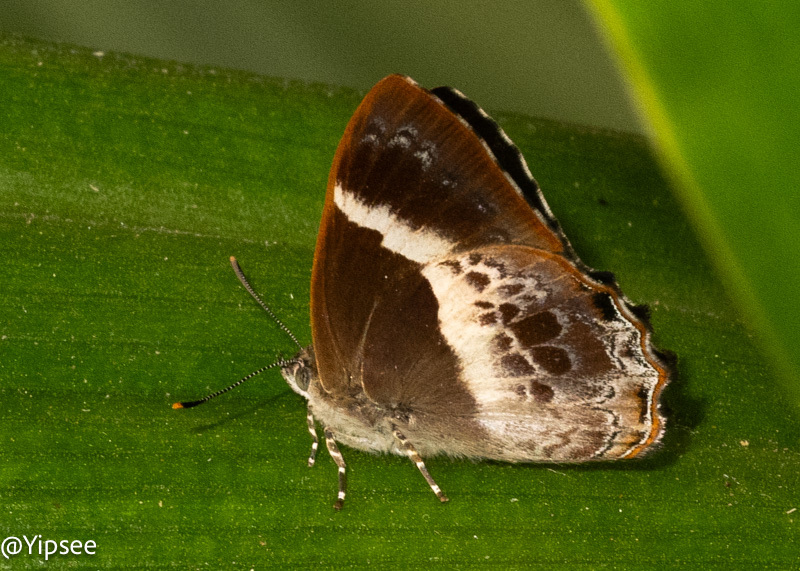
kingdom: Animalia
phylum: Arthropoda
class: Insecta
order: Lepidoptera
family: Lycaenidae
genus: Simiskina
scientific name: Simiskina
